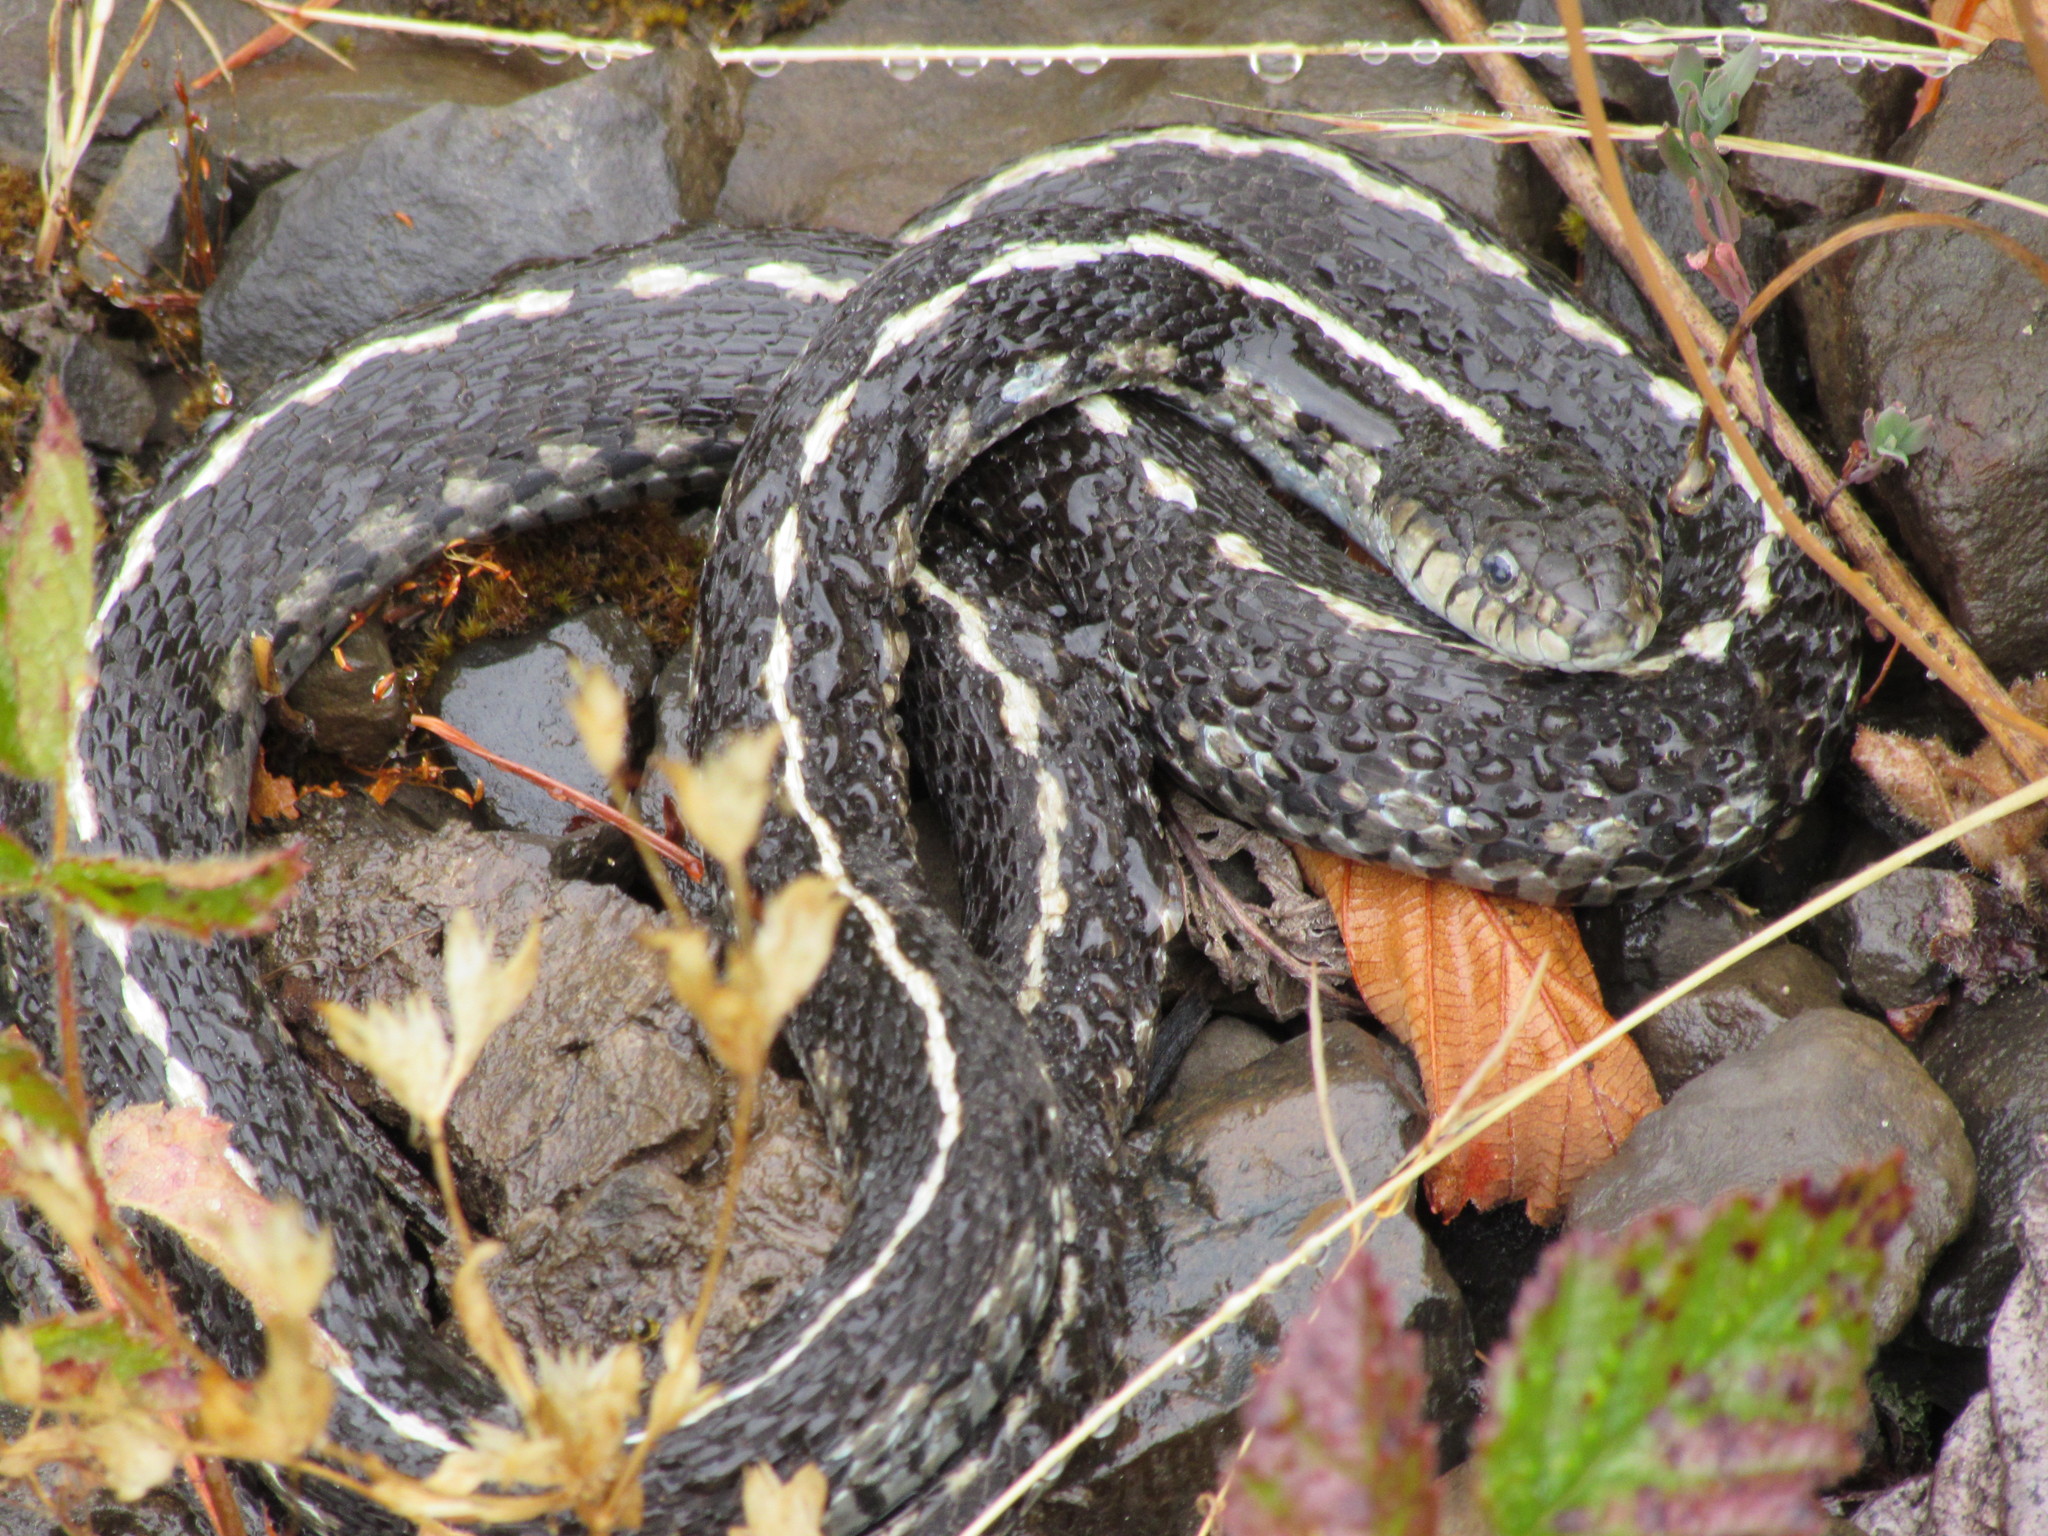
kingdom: Animalia
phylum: Chordata
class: Squamata
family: Colubridae
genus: Thamnophis
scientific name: Thamnophis elegans
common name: Western terrestrial garter snake
